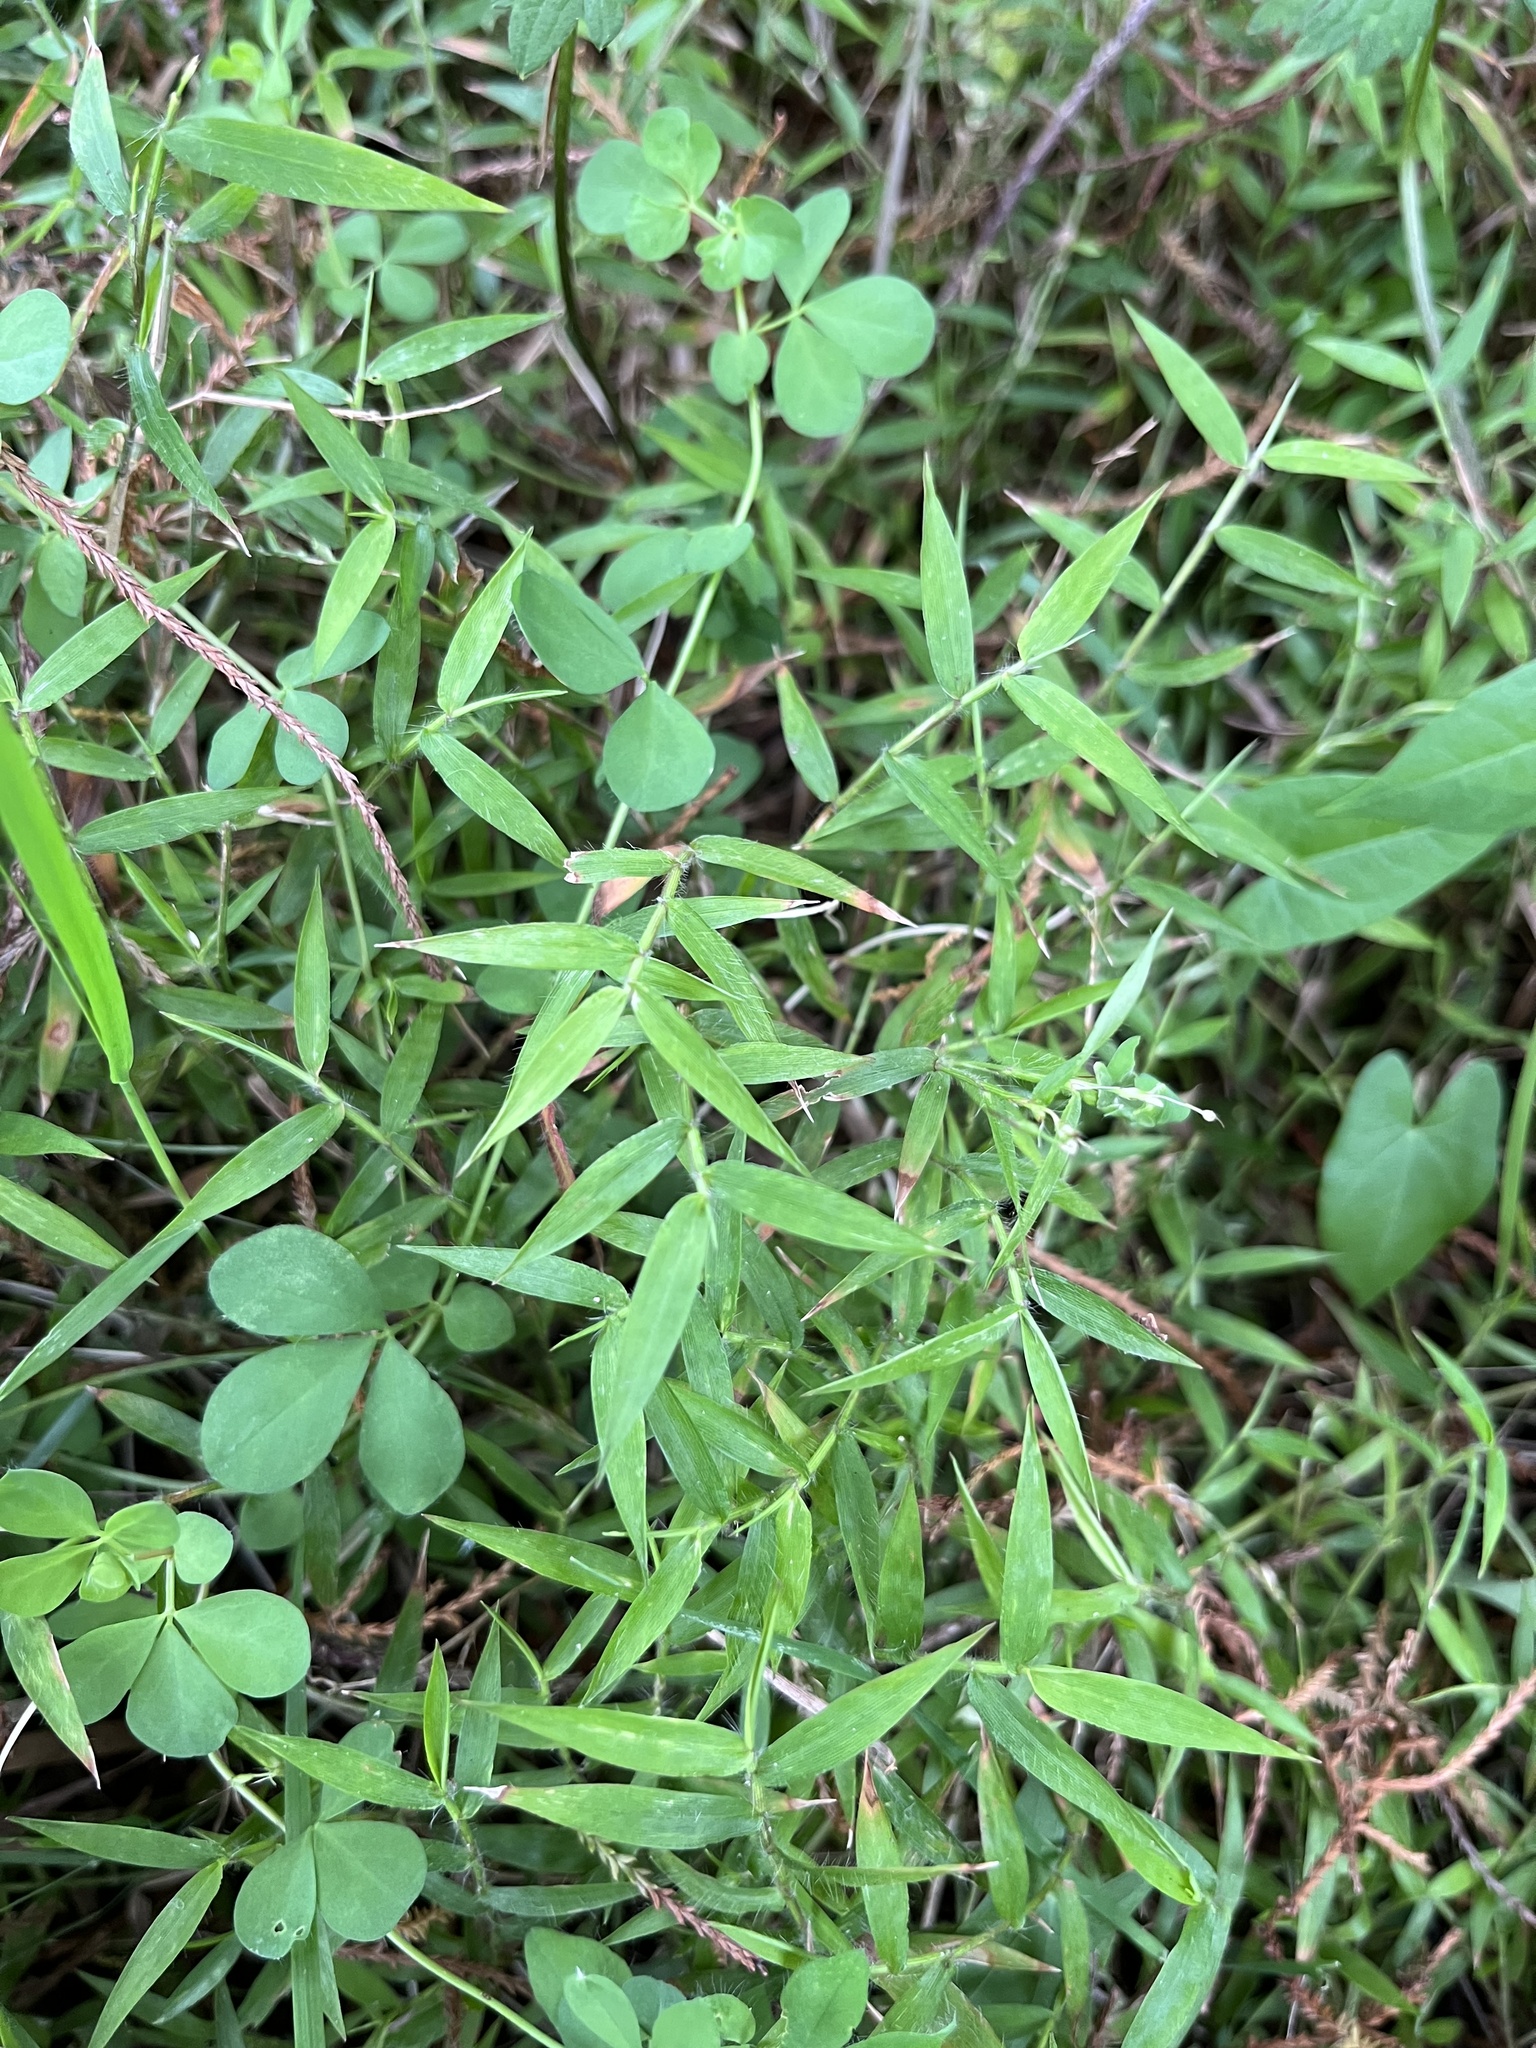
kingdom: Plantae
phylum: Tracheophyta
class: Liliopsida
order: Poales
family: Poaceae
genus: Oplismenus
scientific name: Oplismenus hirtellus
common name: Basketgrass
